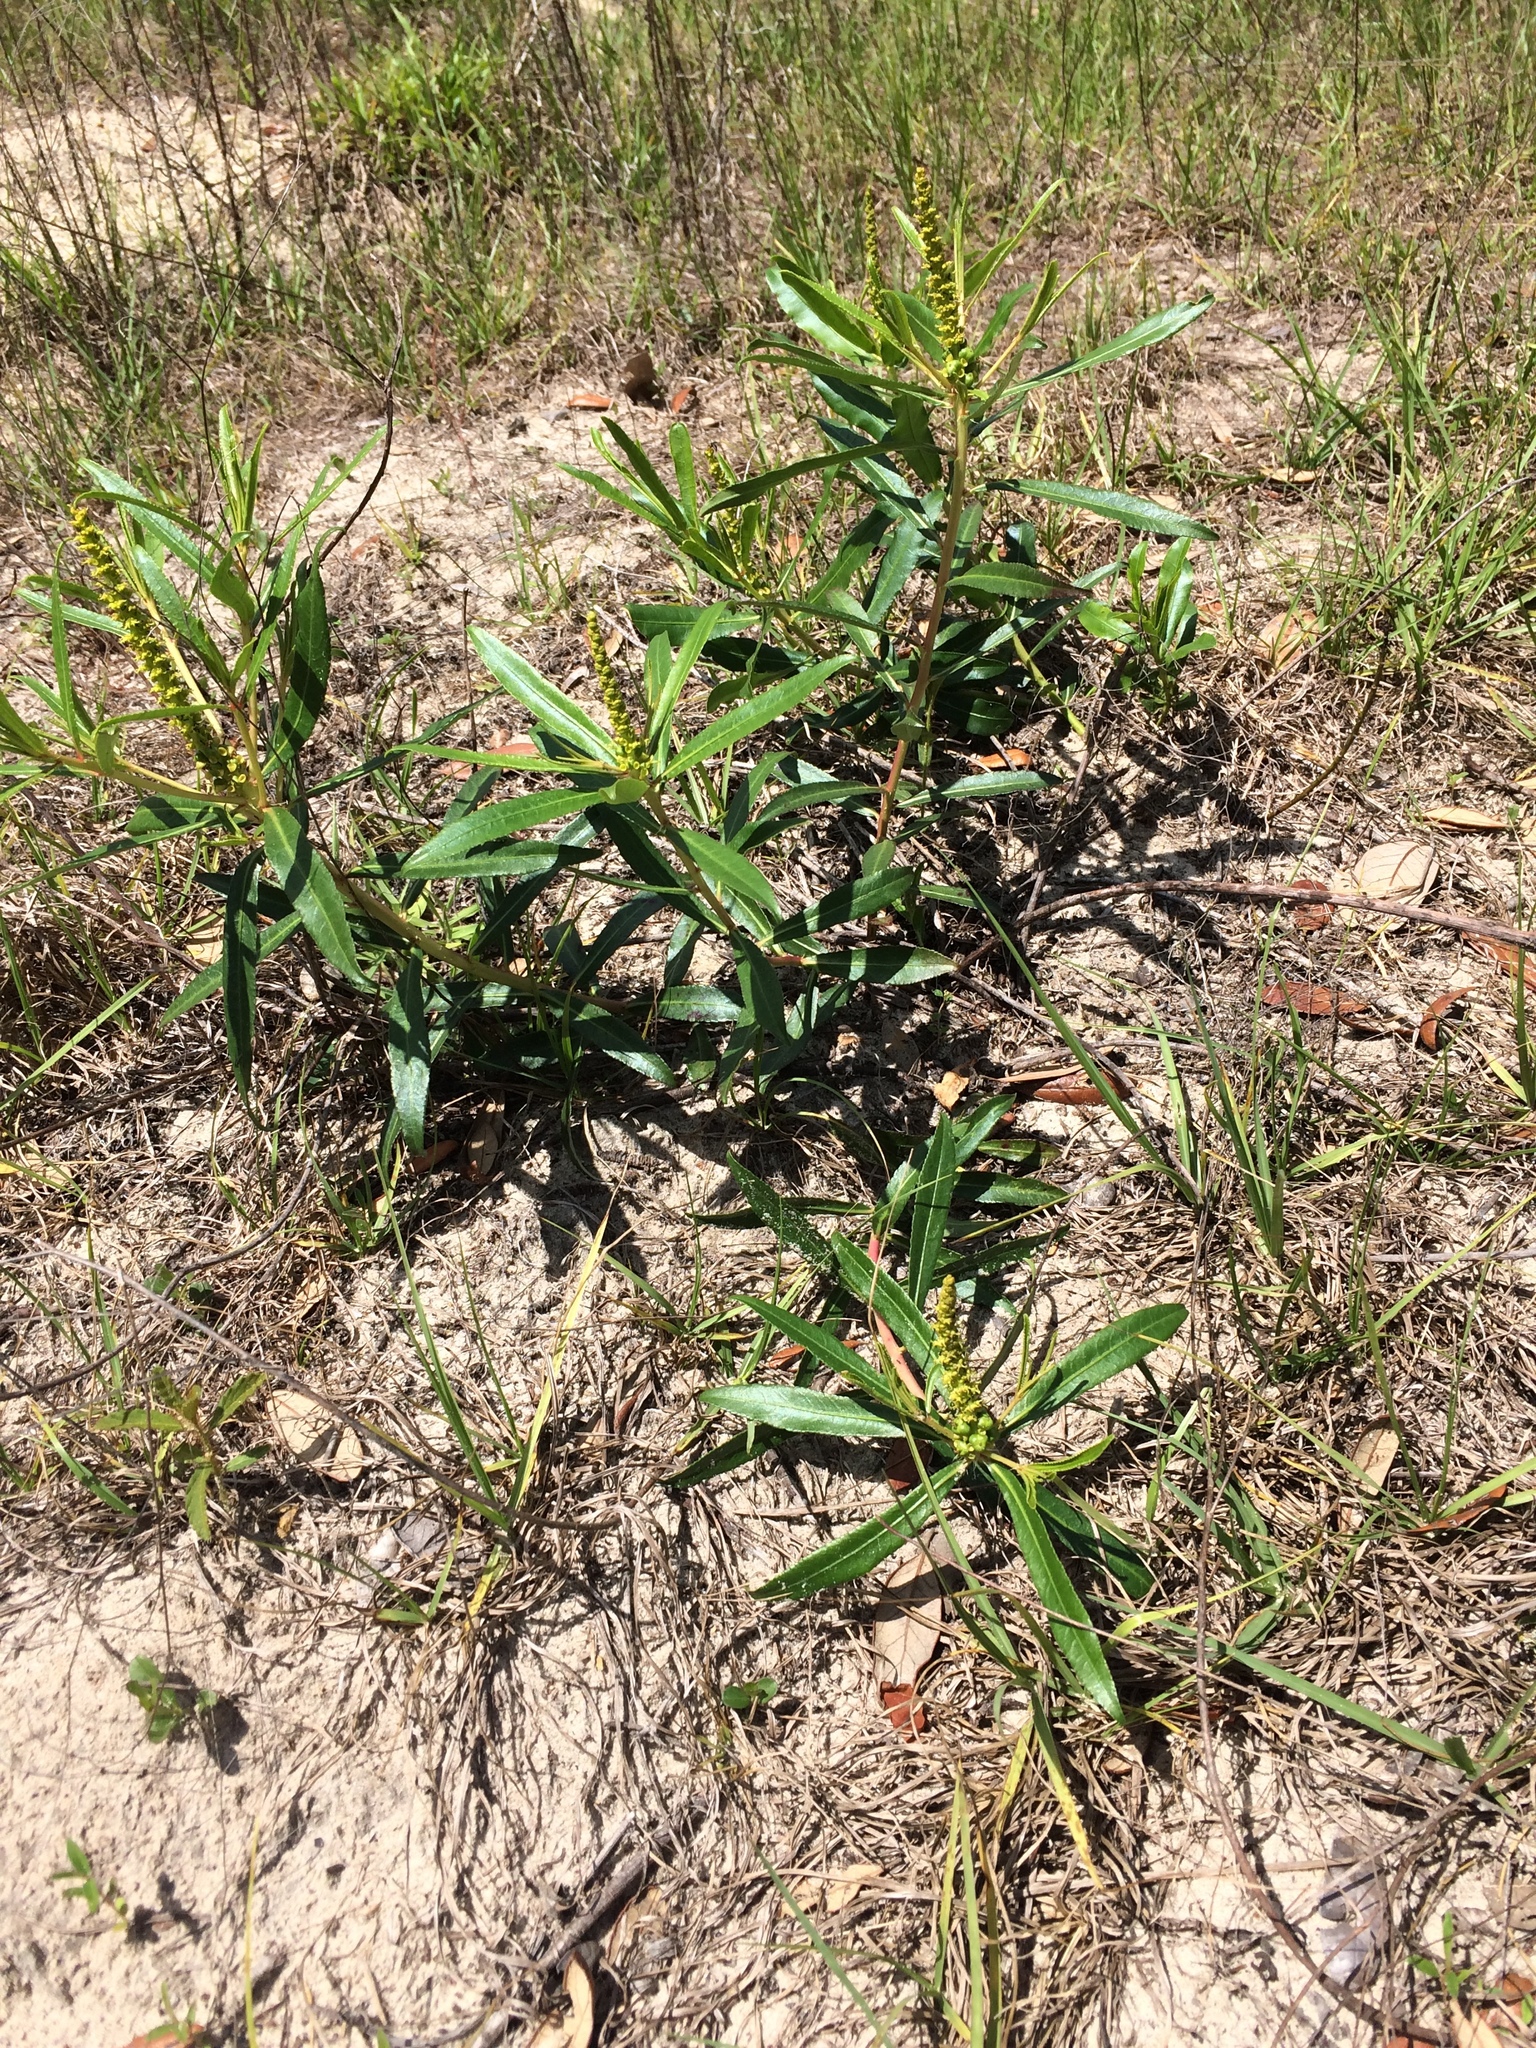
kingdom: Plantae
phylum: Tracheophyta
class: Magnoliopsida
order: Malpighiales
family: Euphorbiaceae
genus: Stillingia
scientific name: Stillingia sylvatica
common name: Queen's-delight
